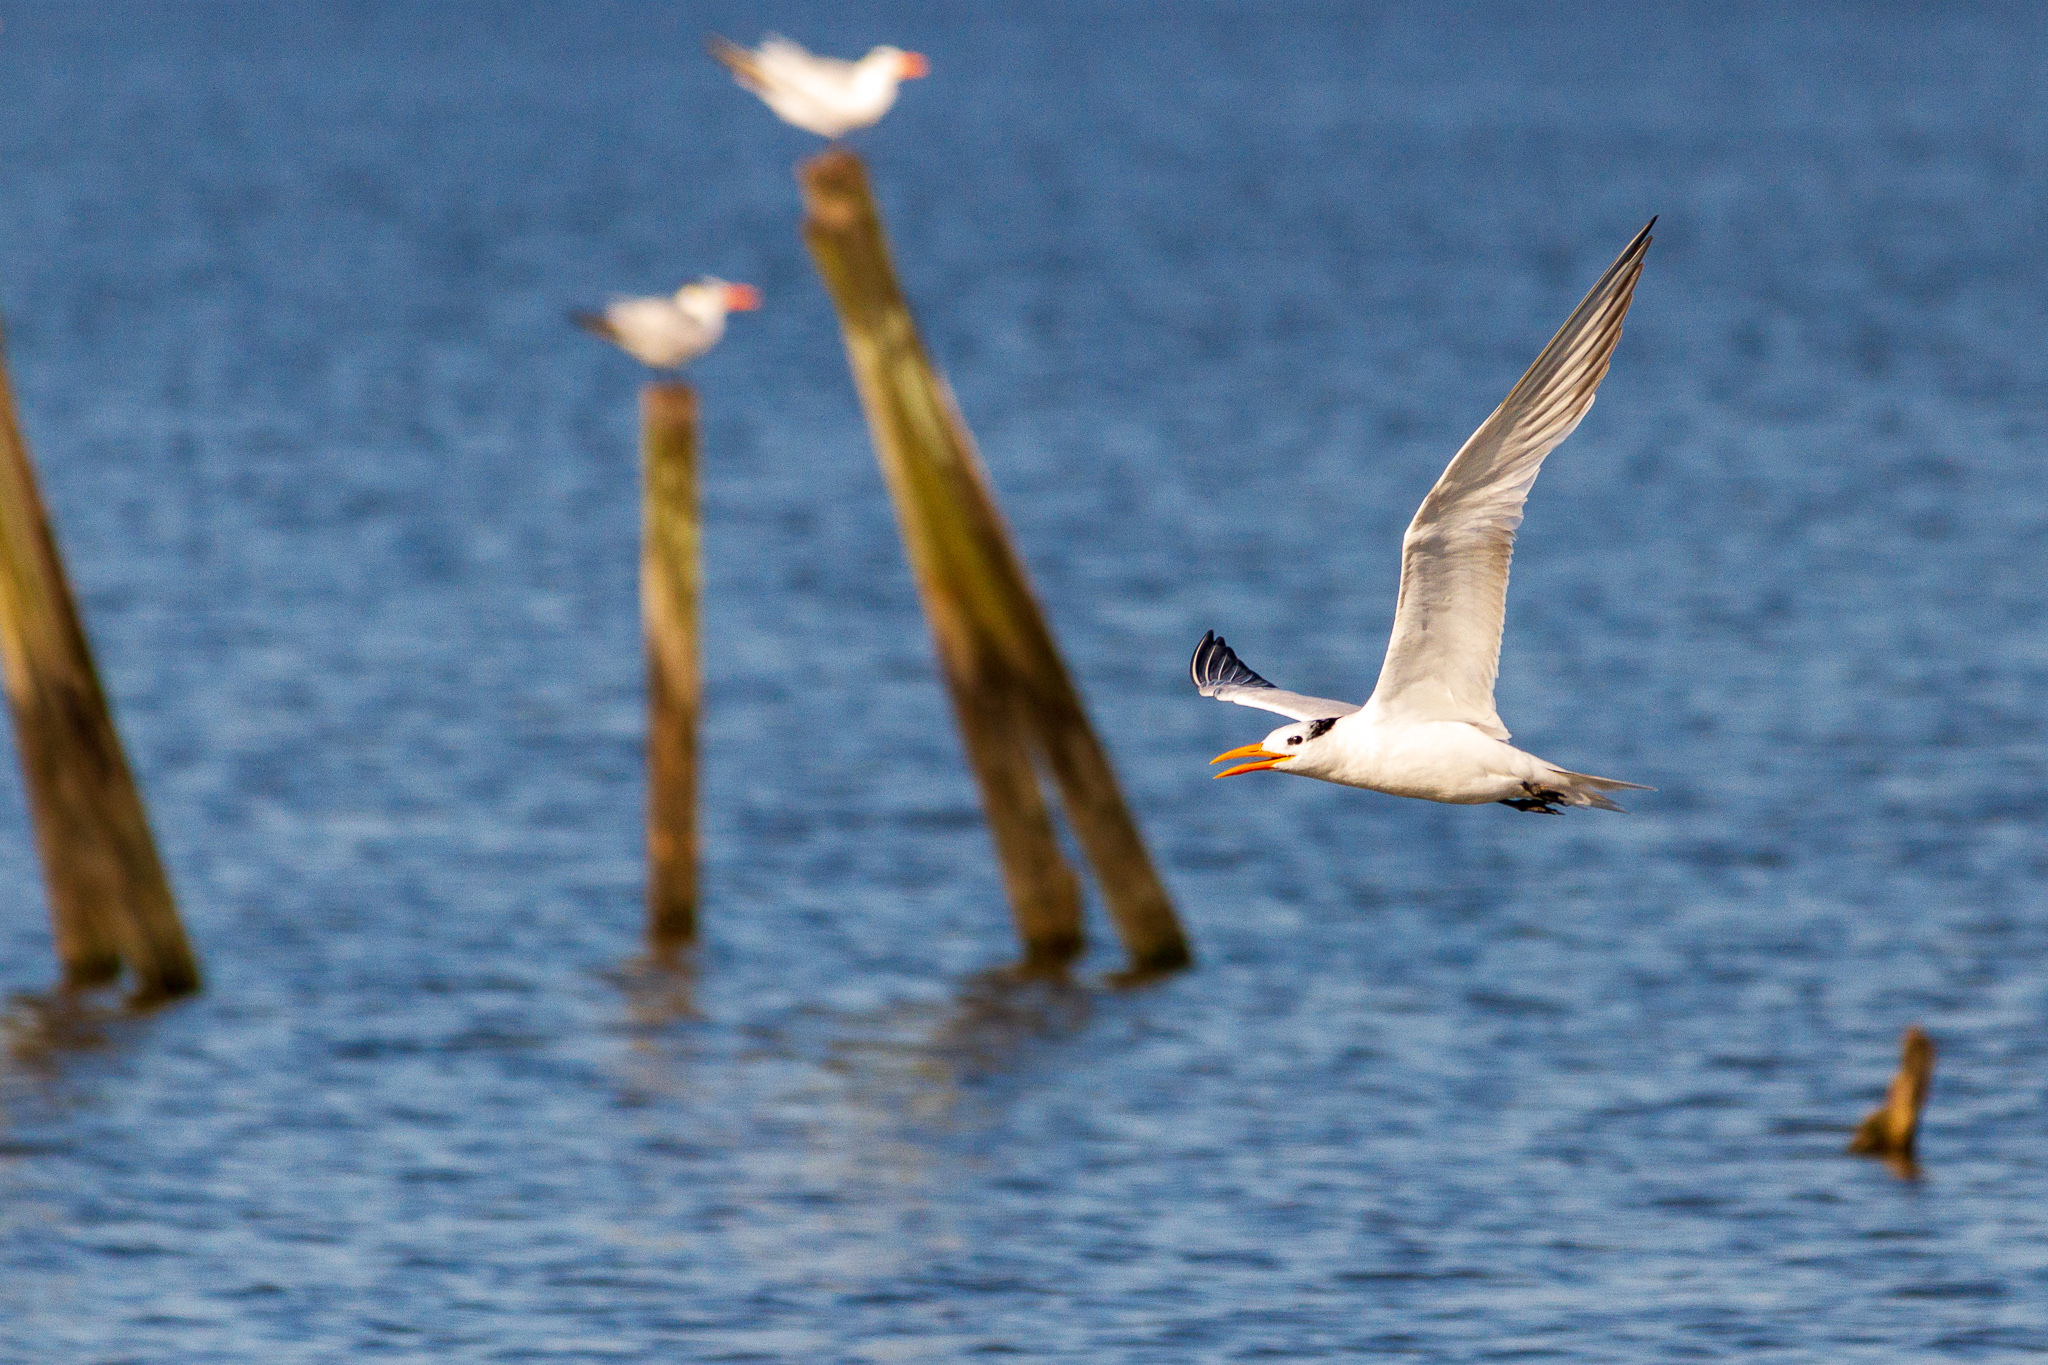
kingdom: Animalia
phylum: Chordata
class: Aves
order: Charadriiformes
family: Laridae
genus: Thalasseus
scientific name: Thalasseus maximus
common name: Royal tern
